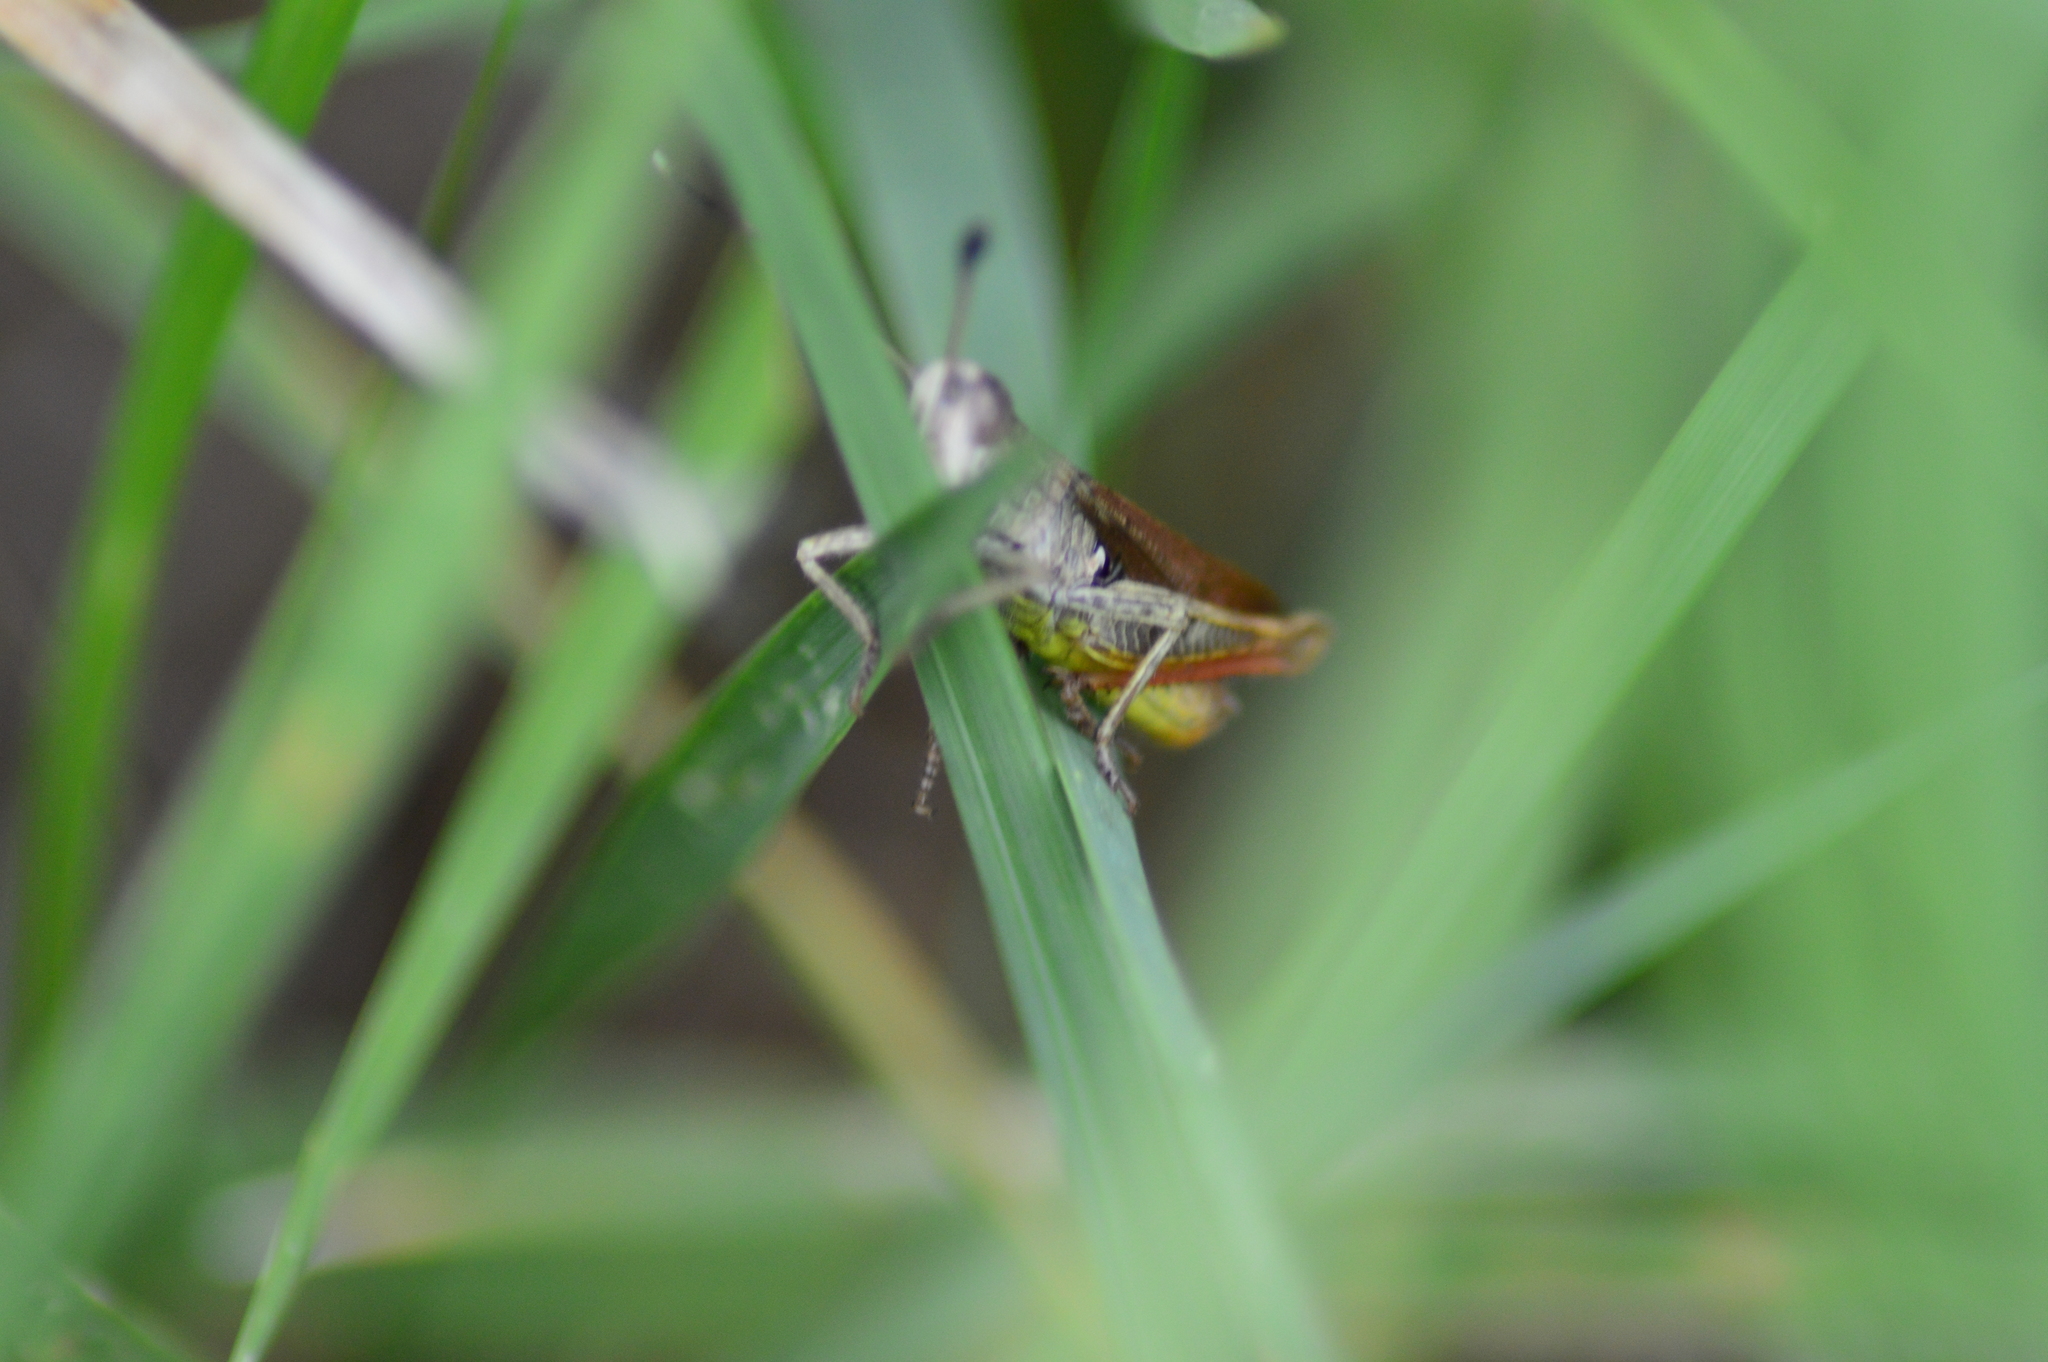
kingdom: Animalia
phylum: Arthropoda
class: Insecta
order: Orthoptera
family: Acrididae
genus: Gomphocerippus
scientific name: Gomphocerippus rufus
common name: Rufous grasshopper
